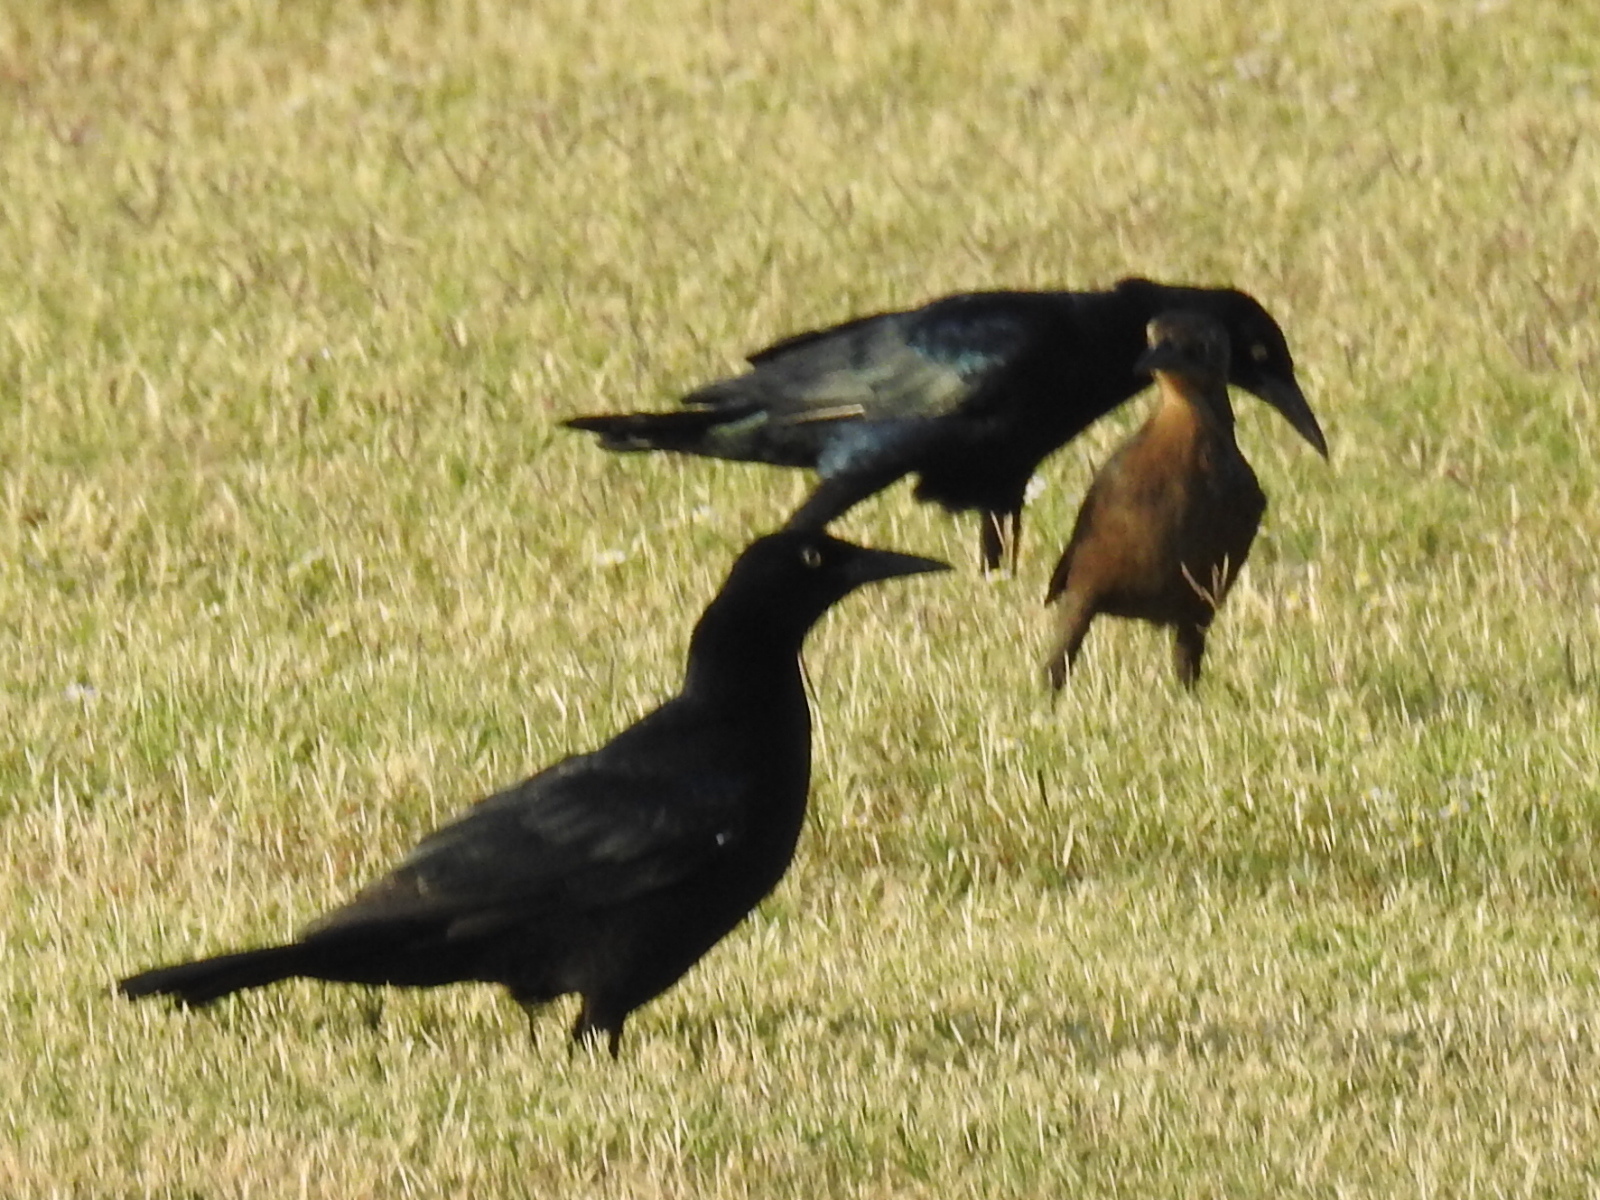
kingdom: Animalia
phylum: Chordata
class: Aves
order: Passeriformes
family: Icteridae
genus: Quiscalus
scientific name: Quiscalus mexicanus
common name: Great-tailed grackle
